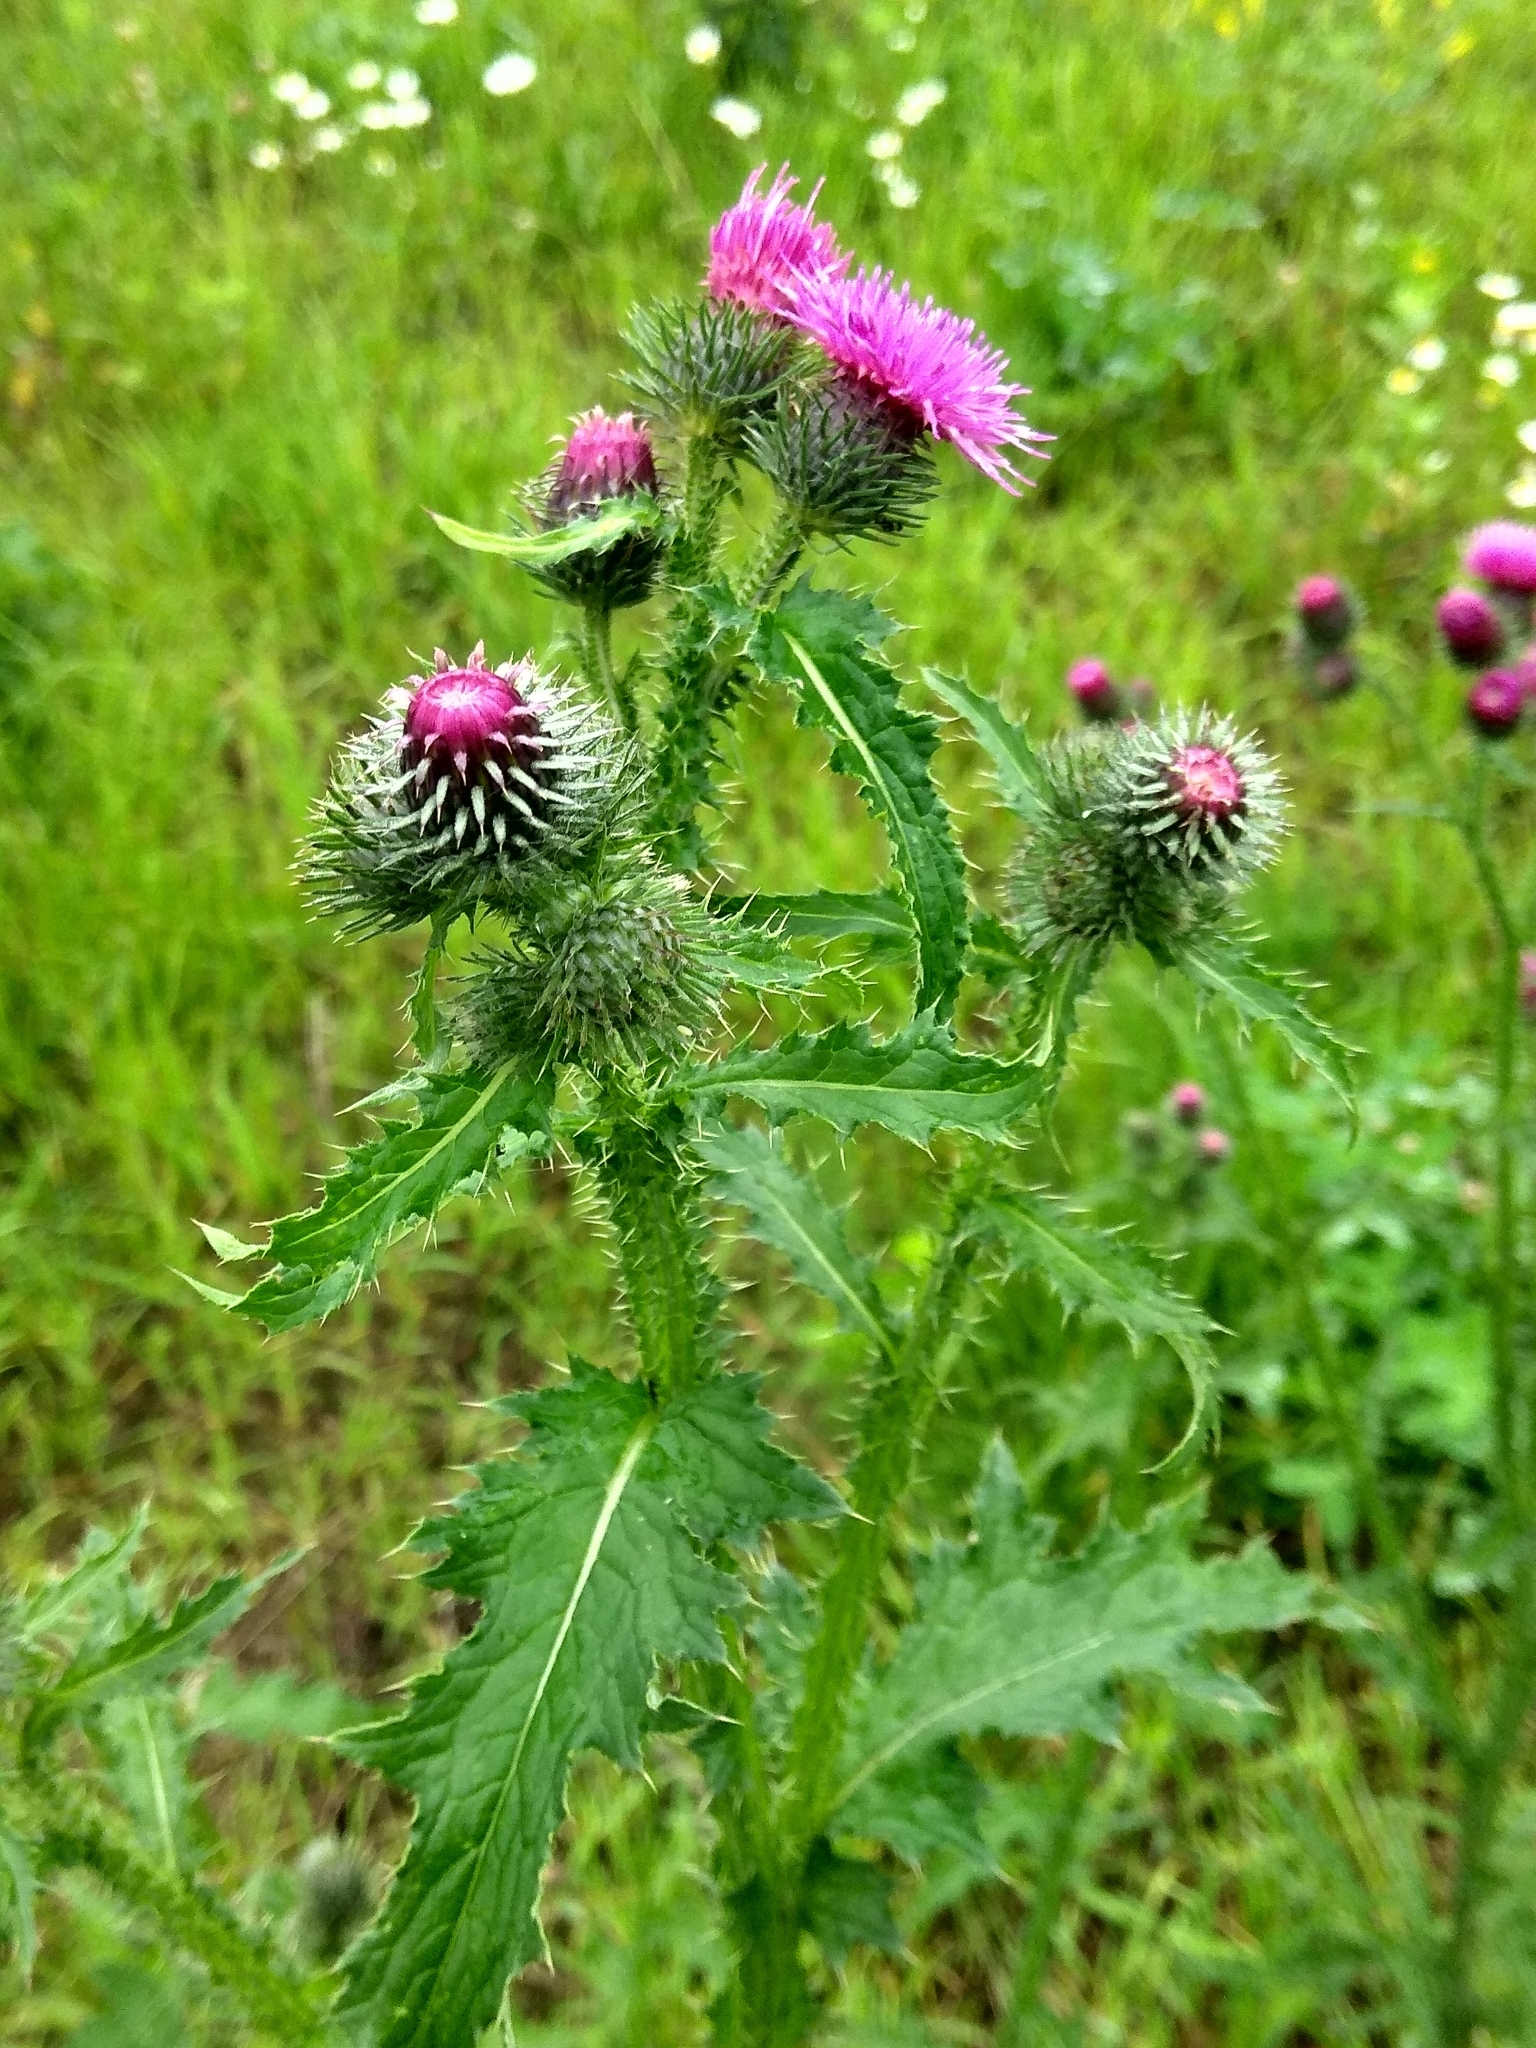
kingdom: Plantae
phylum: Tracheophyta
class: Magnoliopsida
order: Asterales
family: Asteraceae
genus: Carduus
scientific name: Carduus crispus
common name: Welted thistle
